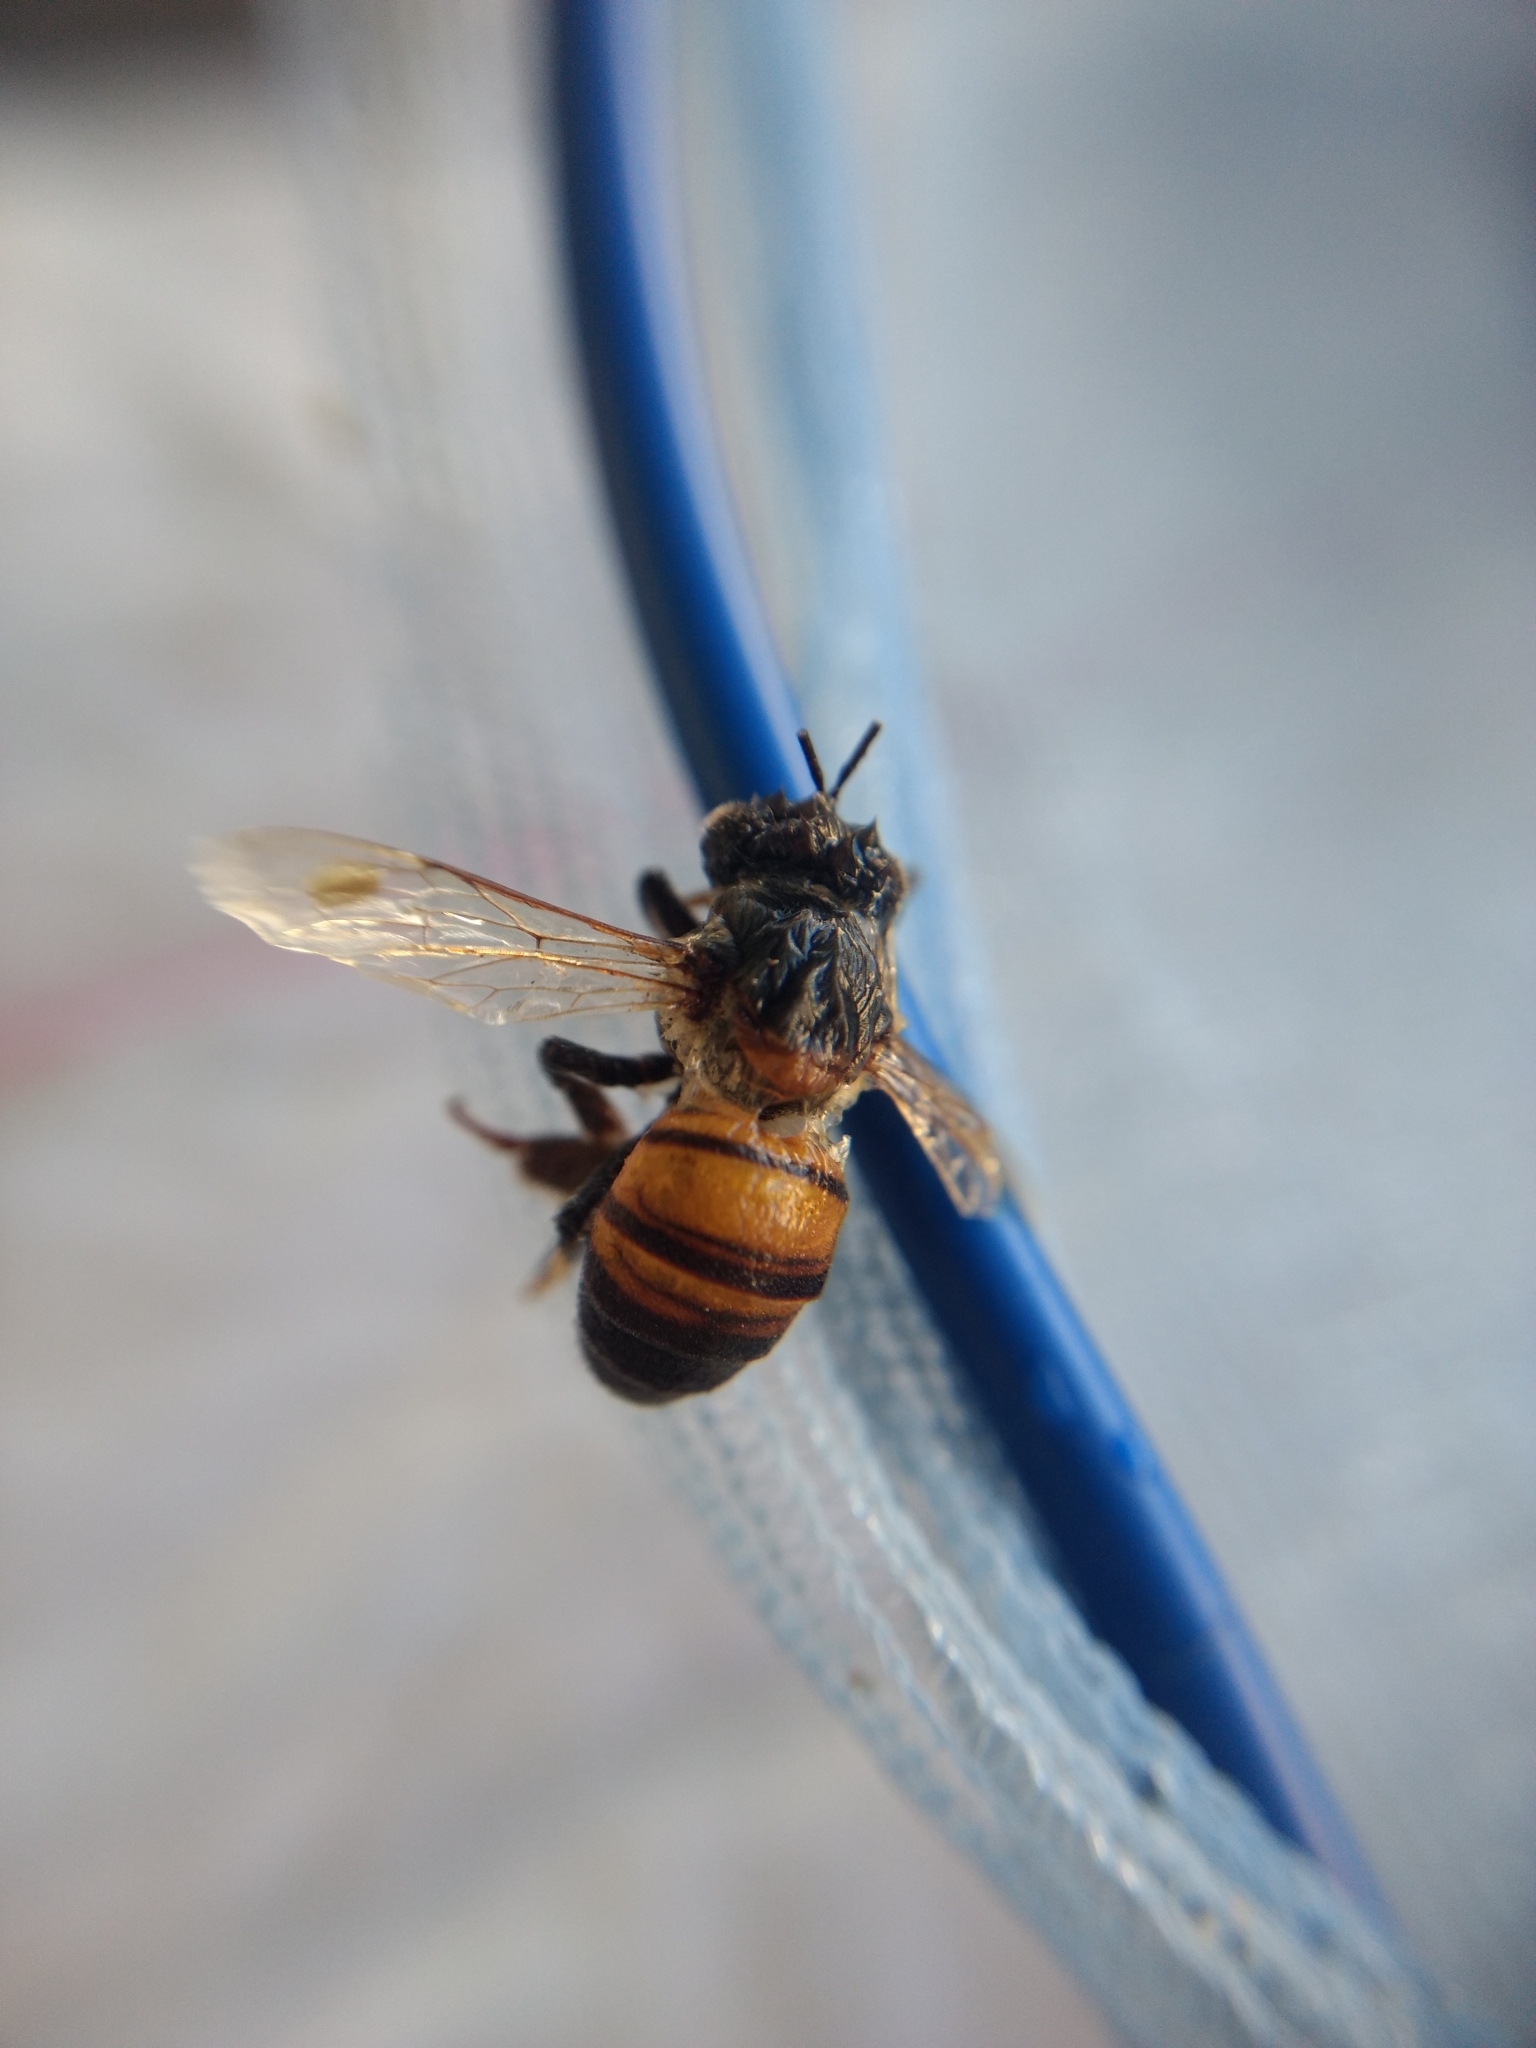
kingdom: Animalia
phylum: Arthropoda
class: Insecta
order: Hymenoptera
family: Apidae
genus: Apis
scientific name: Apis mellifera
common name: Honey bee
